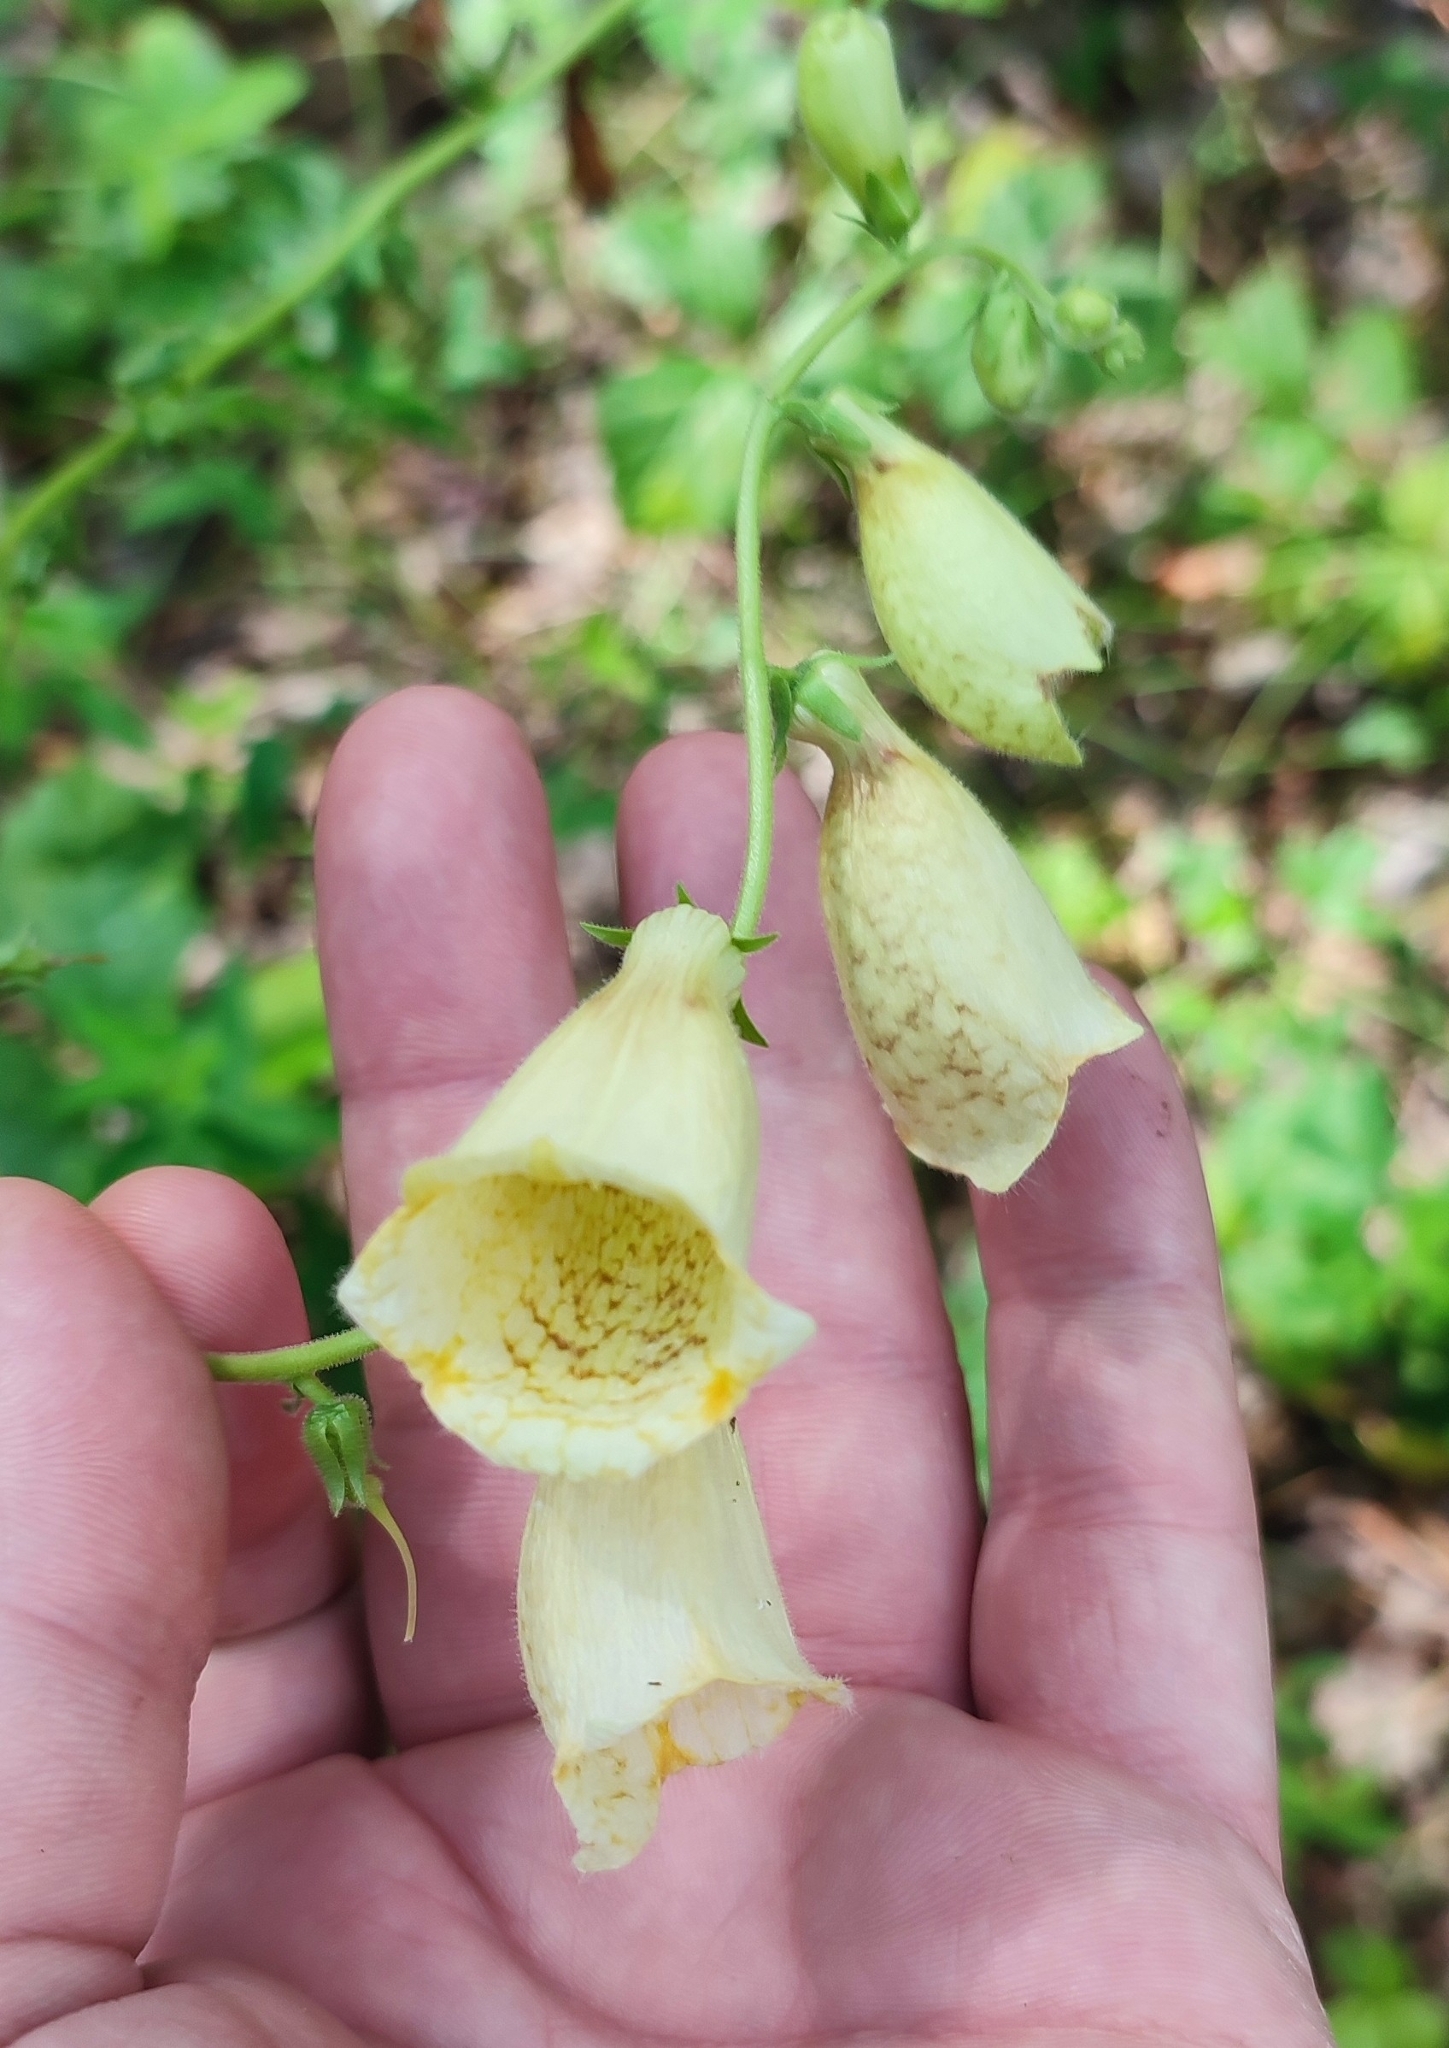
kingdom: Plantae
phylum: Tracheophyta
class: Magnoliopsida
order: Lamiales
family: Plantaginaceae
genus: Digitalis
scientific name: Digitalis grandiflora
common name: Yellow foxglove
